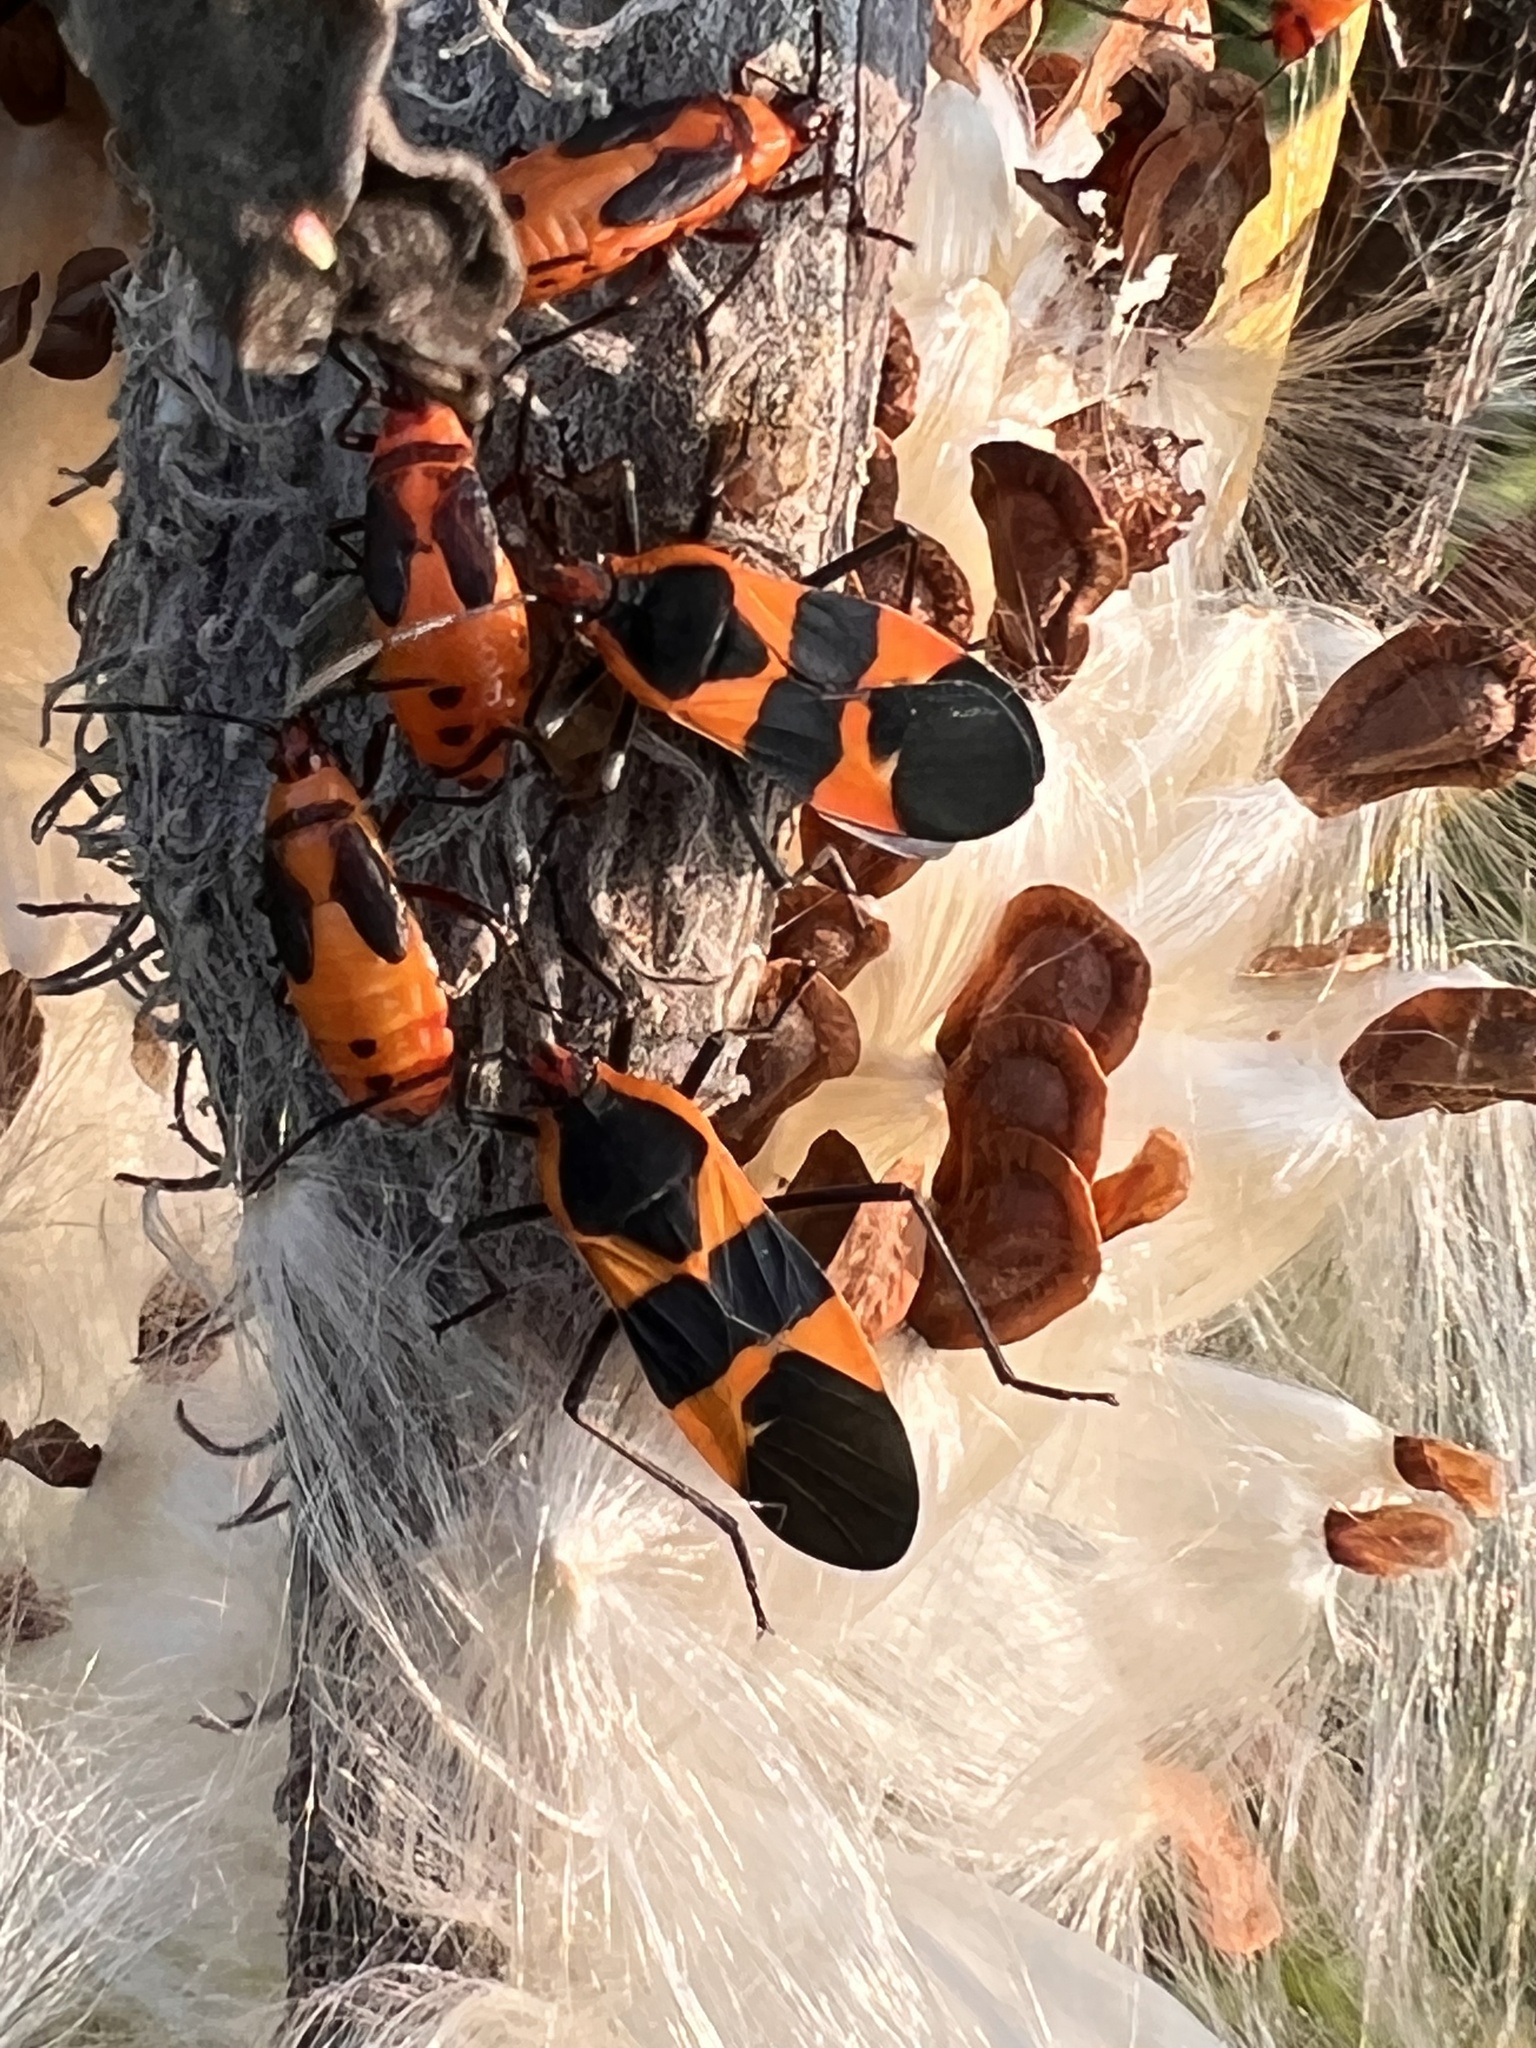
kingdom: Animalia
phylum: Arthropoda
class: Insecta
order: Hemiptera
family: Lygaeidae
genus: Oncopeltus
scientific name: Oncopeltus fasciatus
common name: Large milkweed bug
